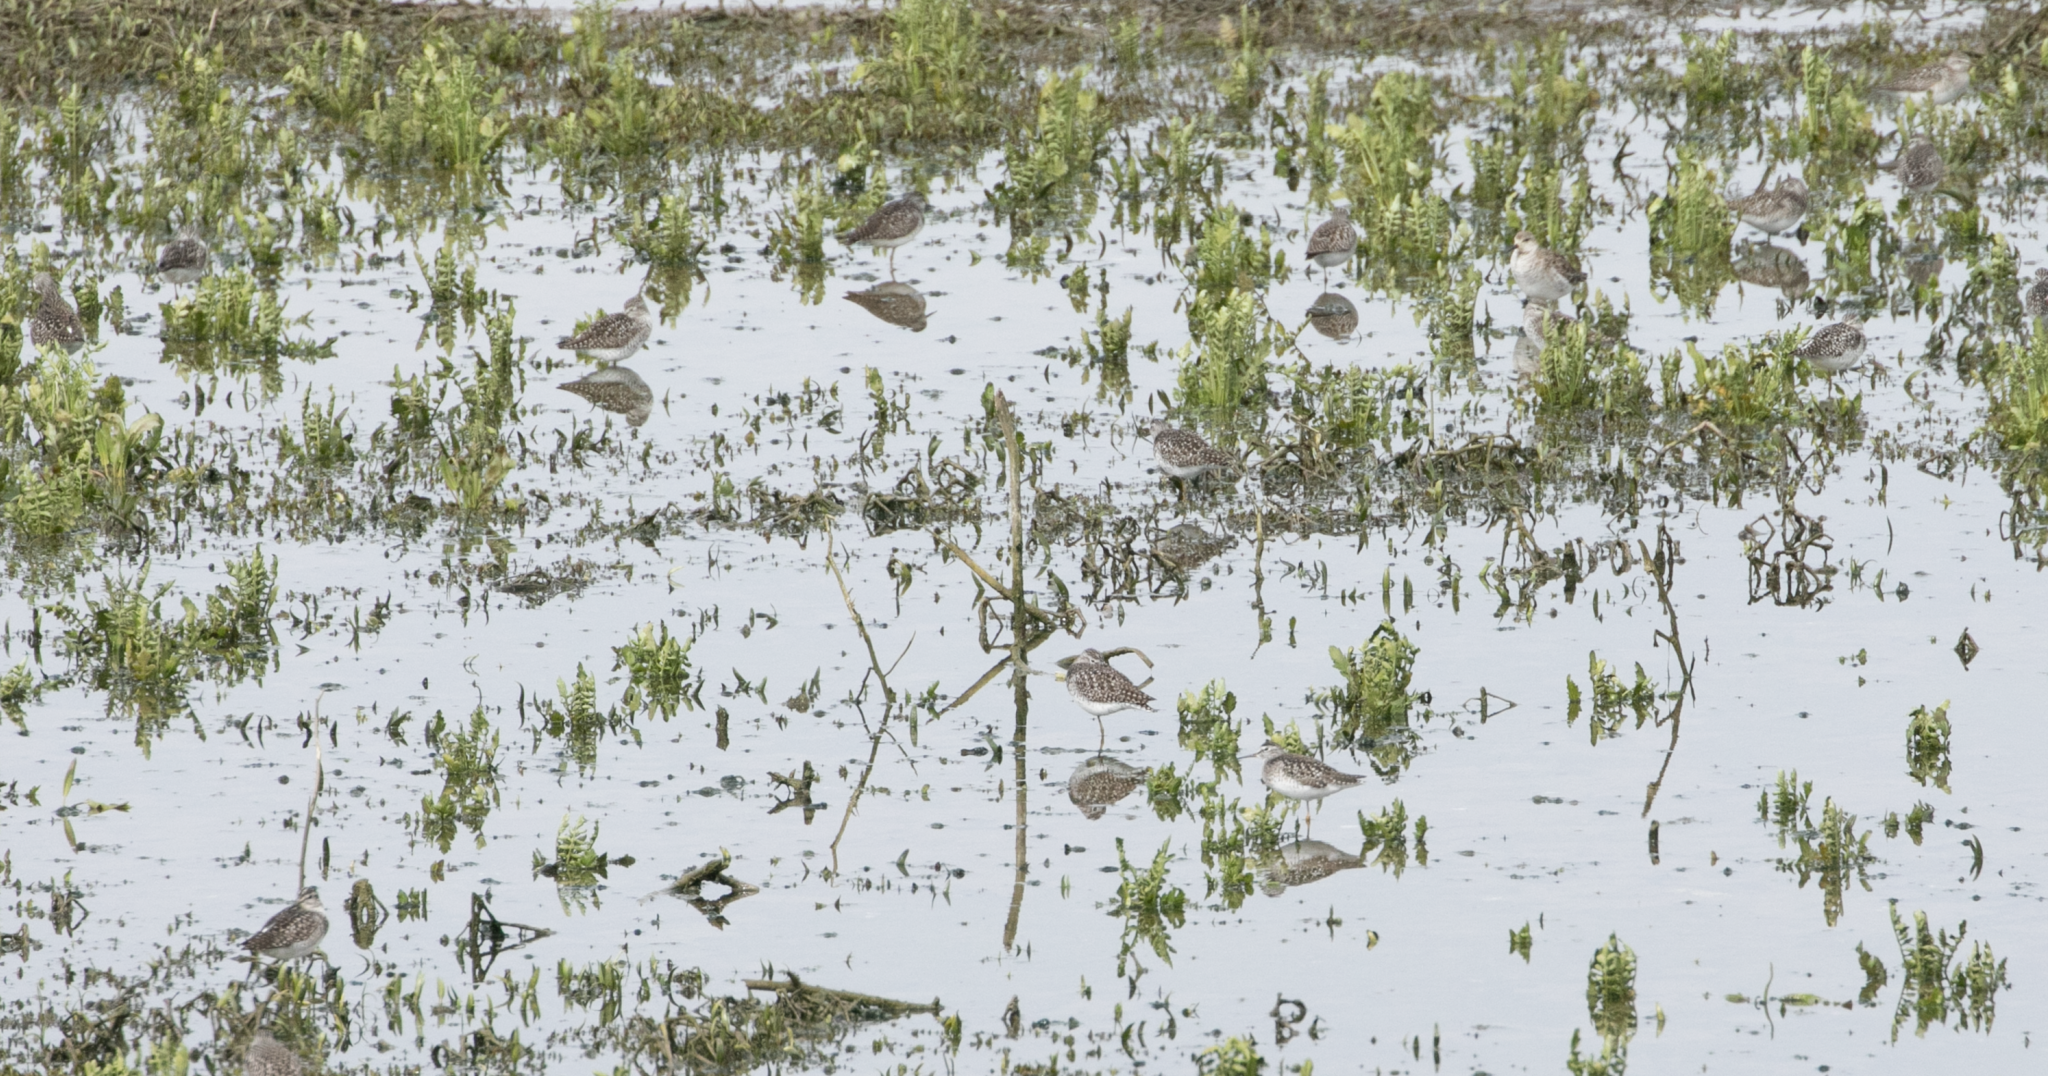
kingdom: Animalia
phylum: Chordata
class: Aves
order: Charadriiformes
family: Scolopacidae
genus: Tringa
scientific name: Tringa glareola
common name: Wood sandpiper
